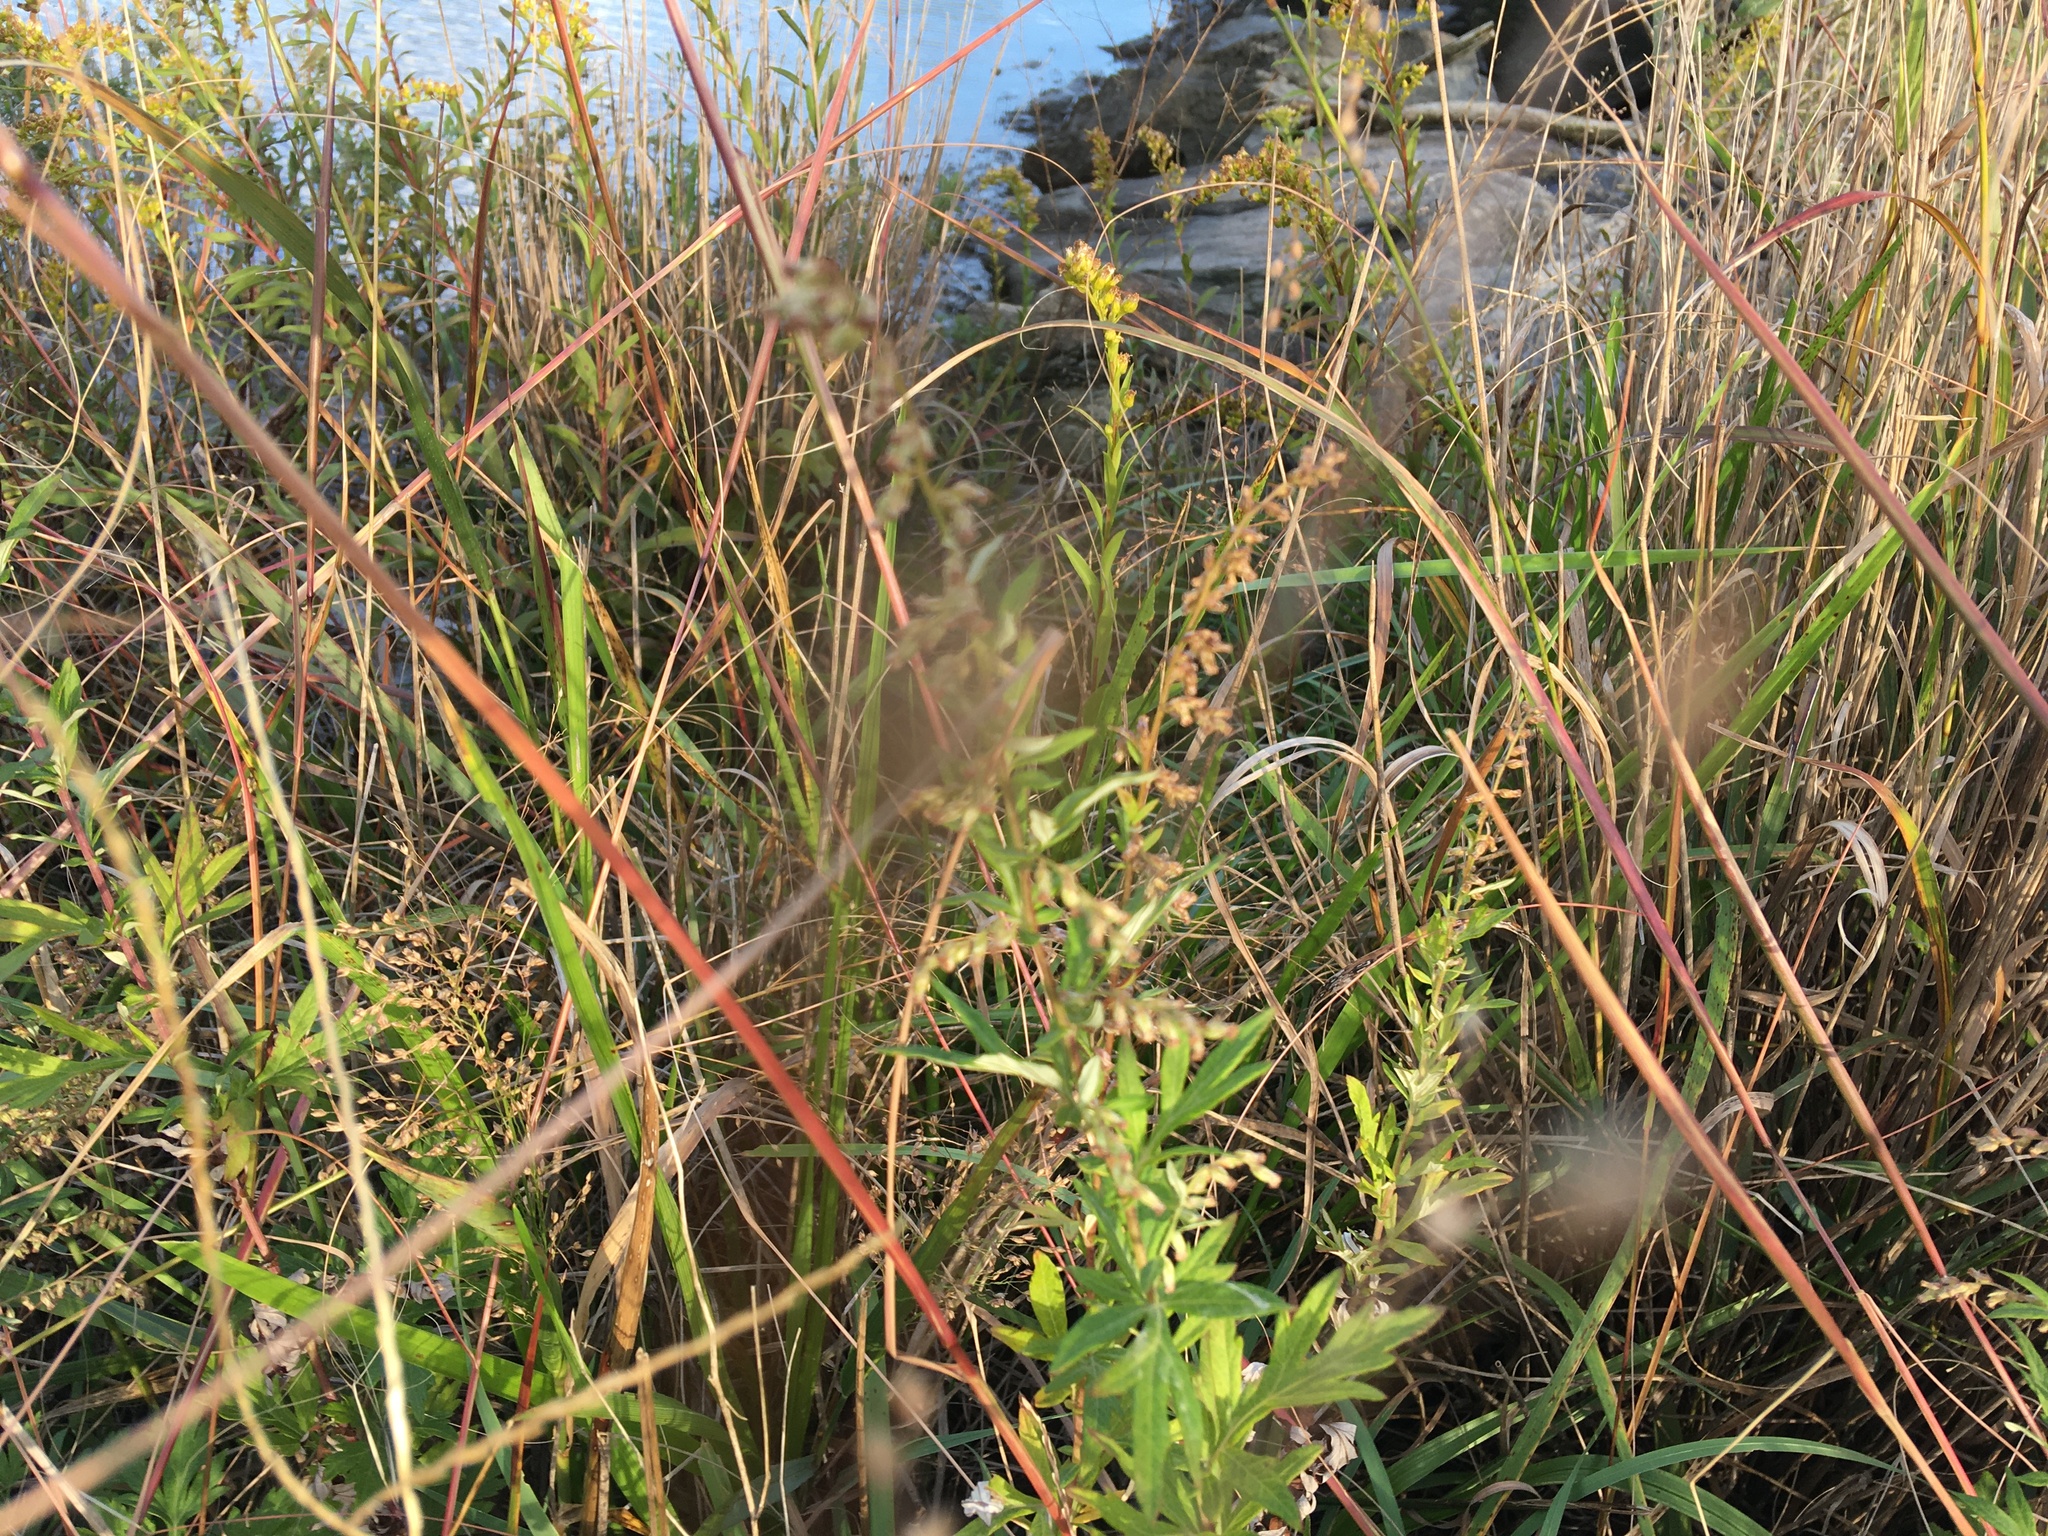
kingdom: Plantae
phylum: Tracheophyta
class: Magnoliopsida
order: Asterales
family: Asteraceae
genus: Artemisia
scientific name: Artemisia vulgaris
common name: Mugwort
